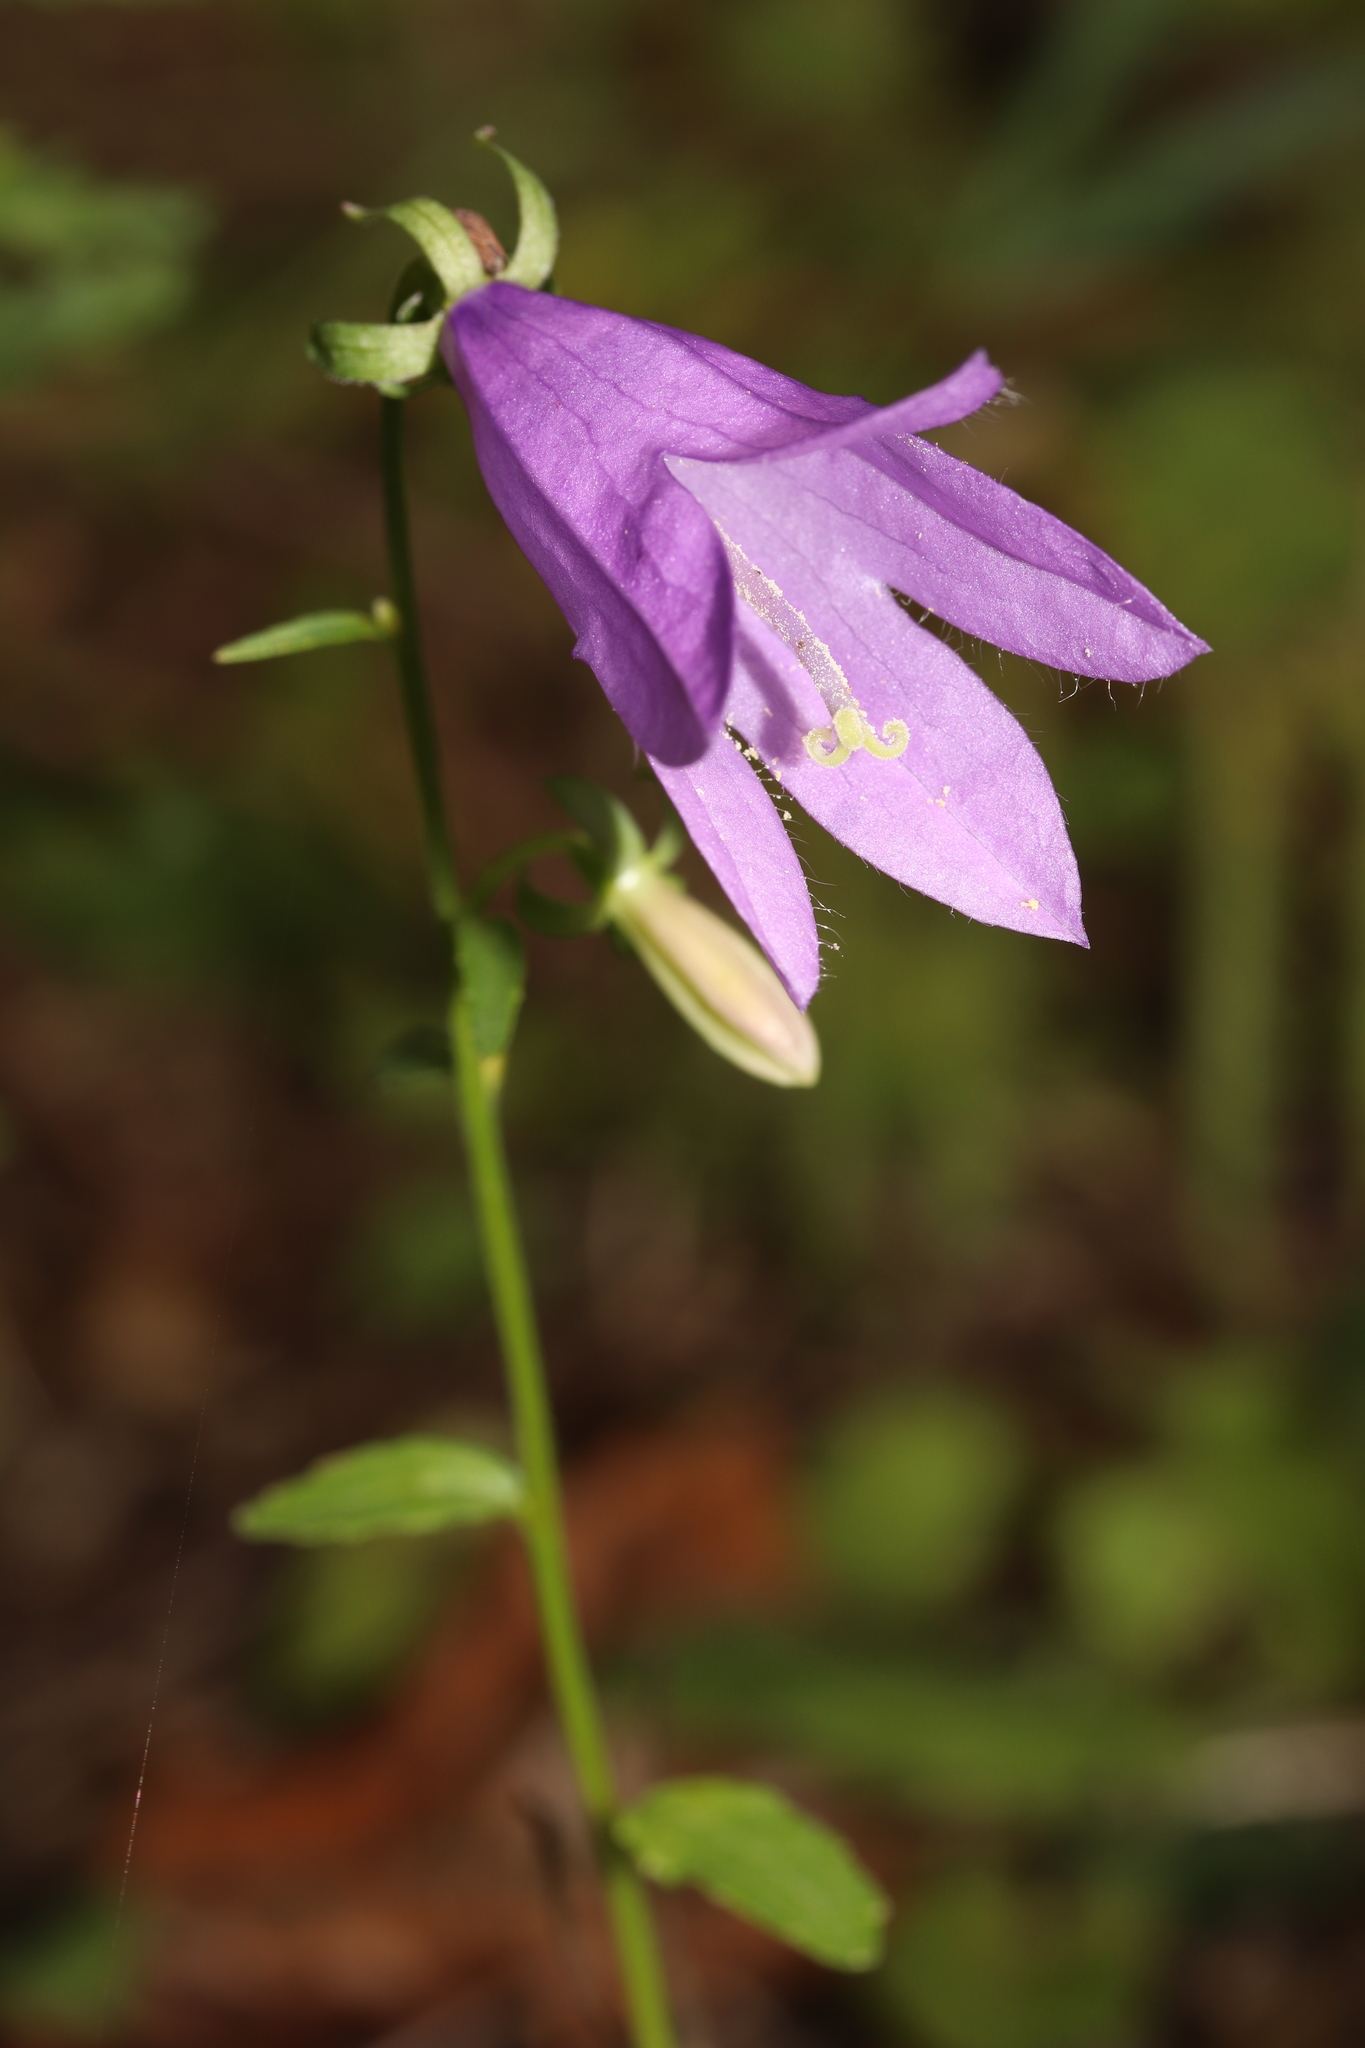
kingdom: Plantae
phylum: Tracheophyta
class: Magnoliopsida
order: Asterales
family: Campanulaceae
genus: Campanula
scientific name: Campanula rapunculoides
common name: Creeping bellflower
